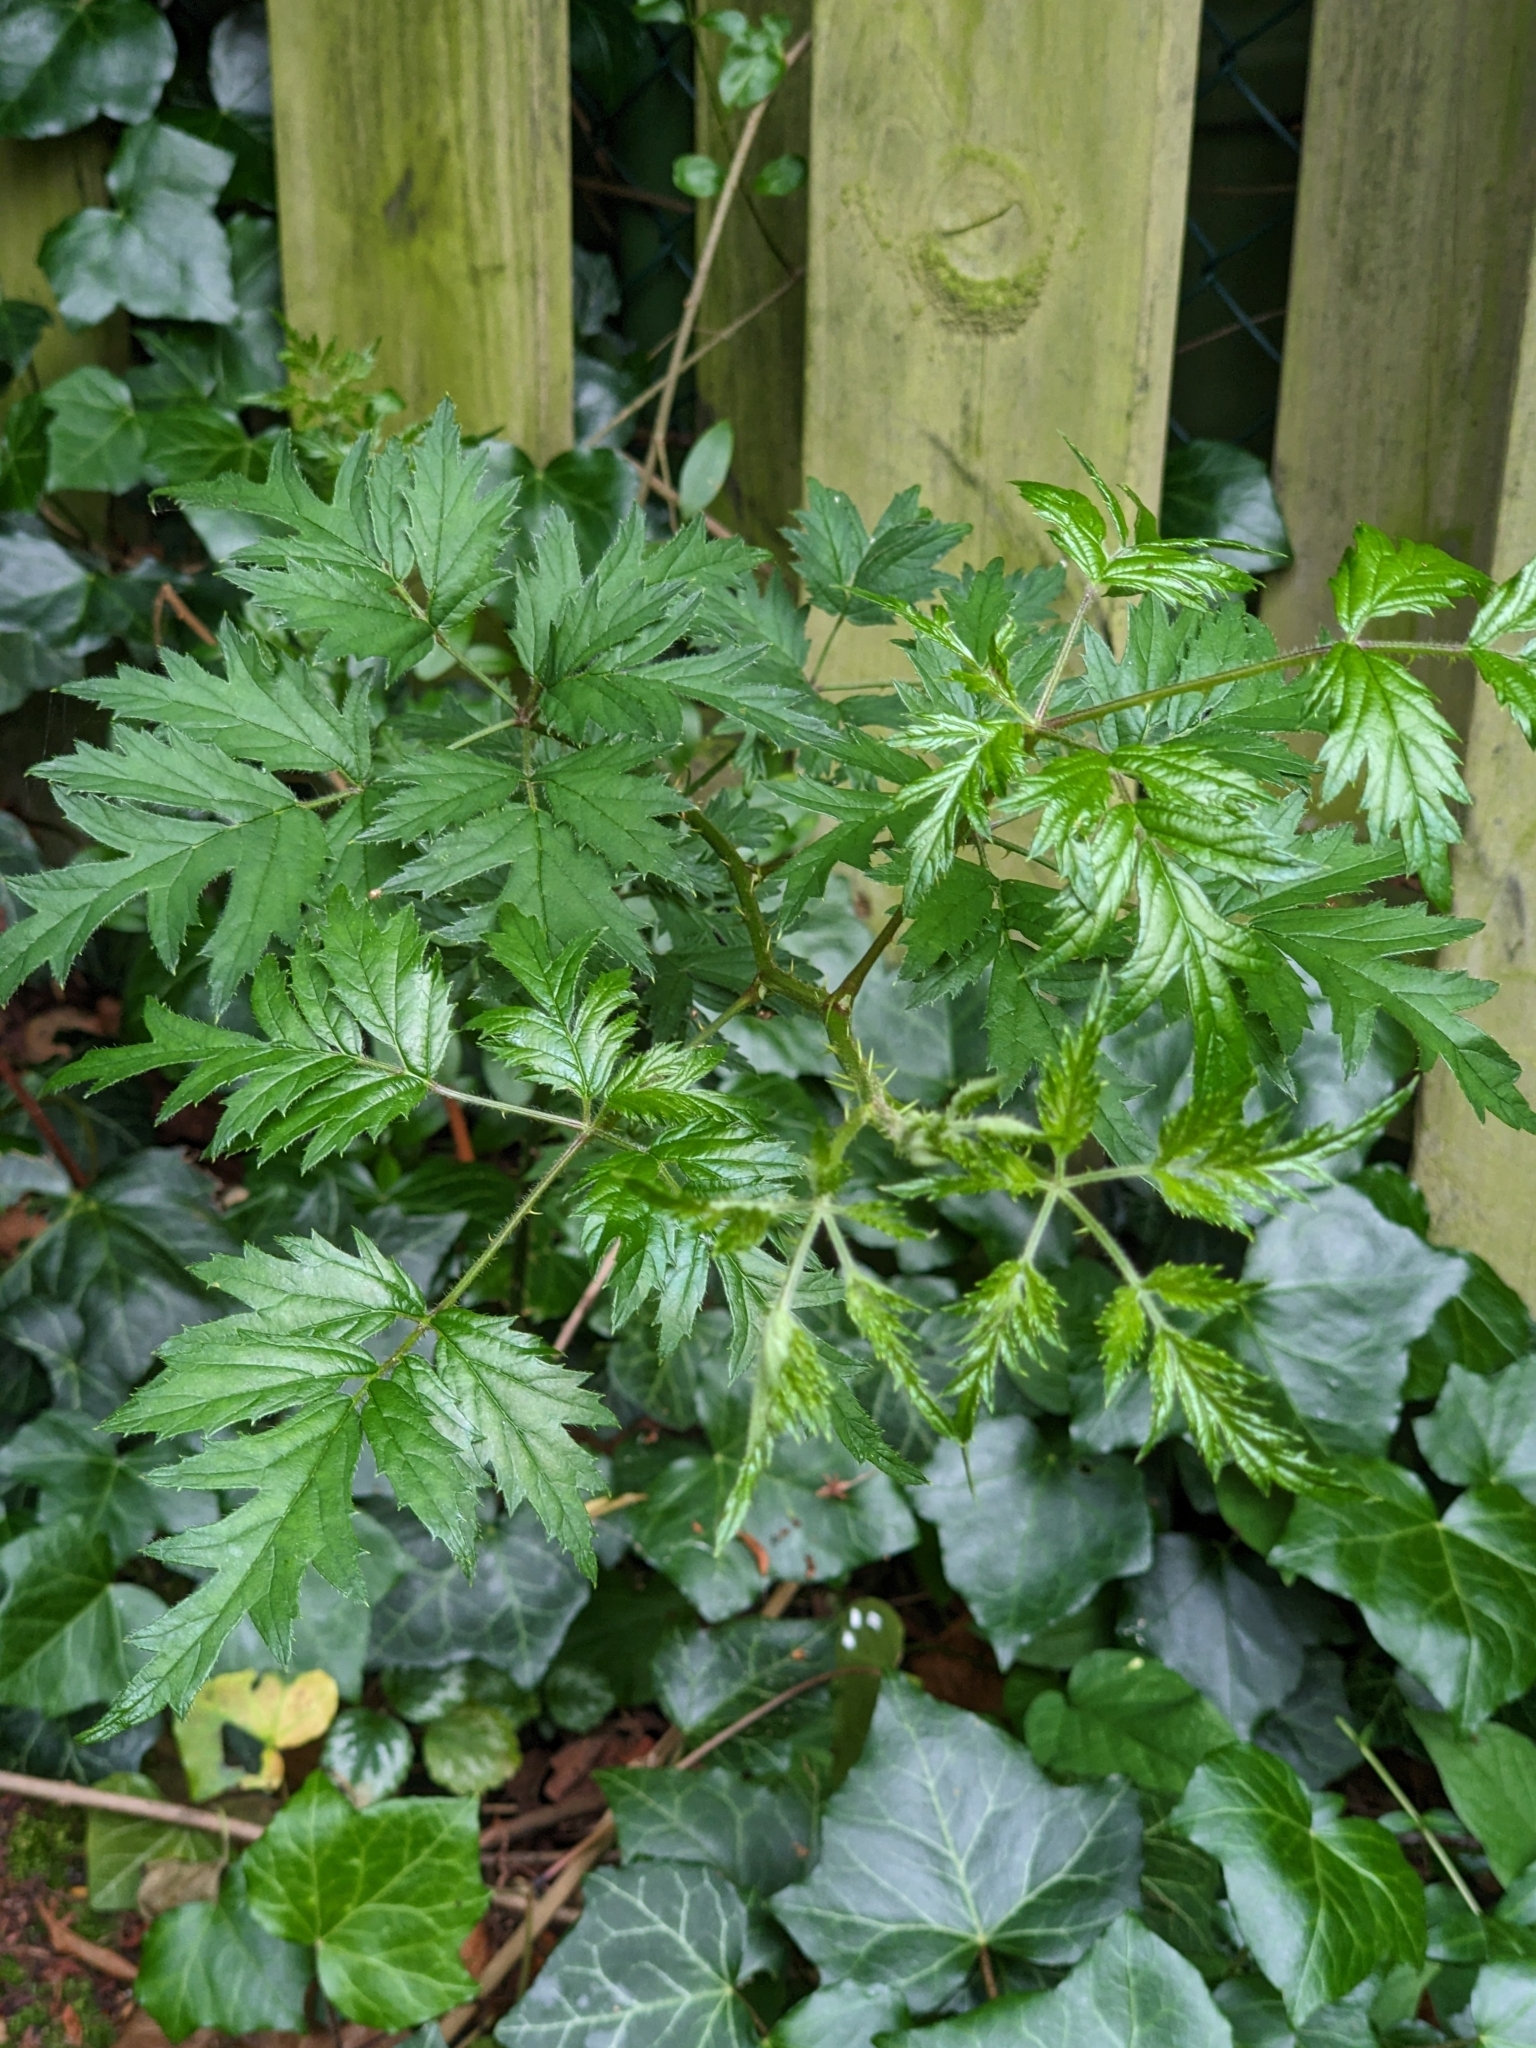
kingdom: Plantae
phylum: Tracheophyta
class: Magnoliopsida
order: Rosales
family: Rosaceae
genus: Rubus
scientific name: Rubus laciniatus
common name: Evergreen blackberry
